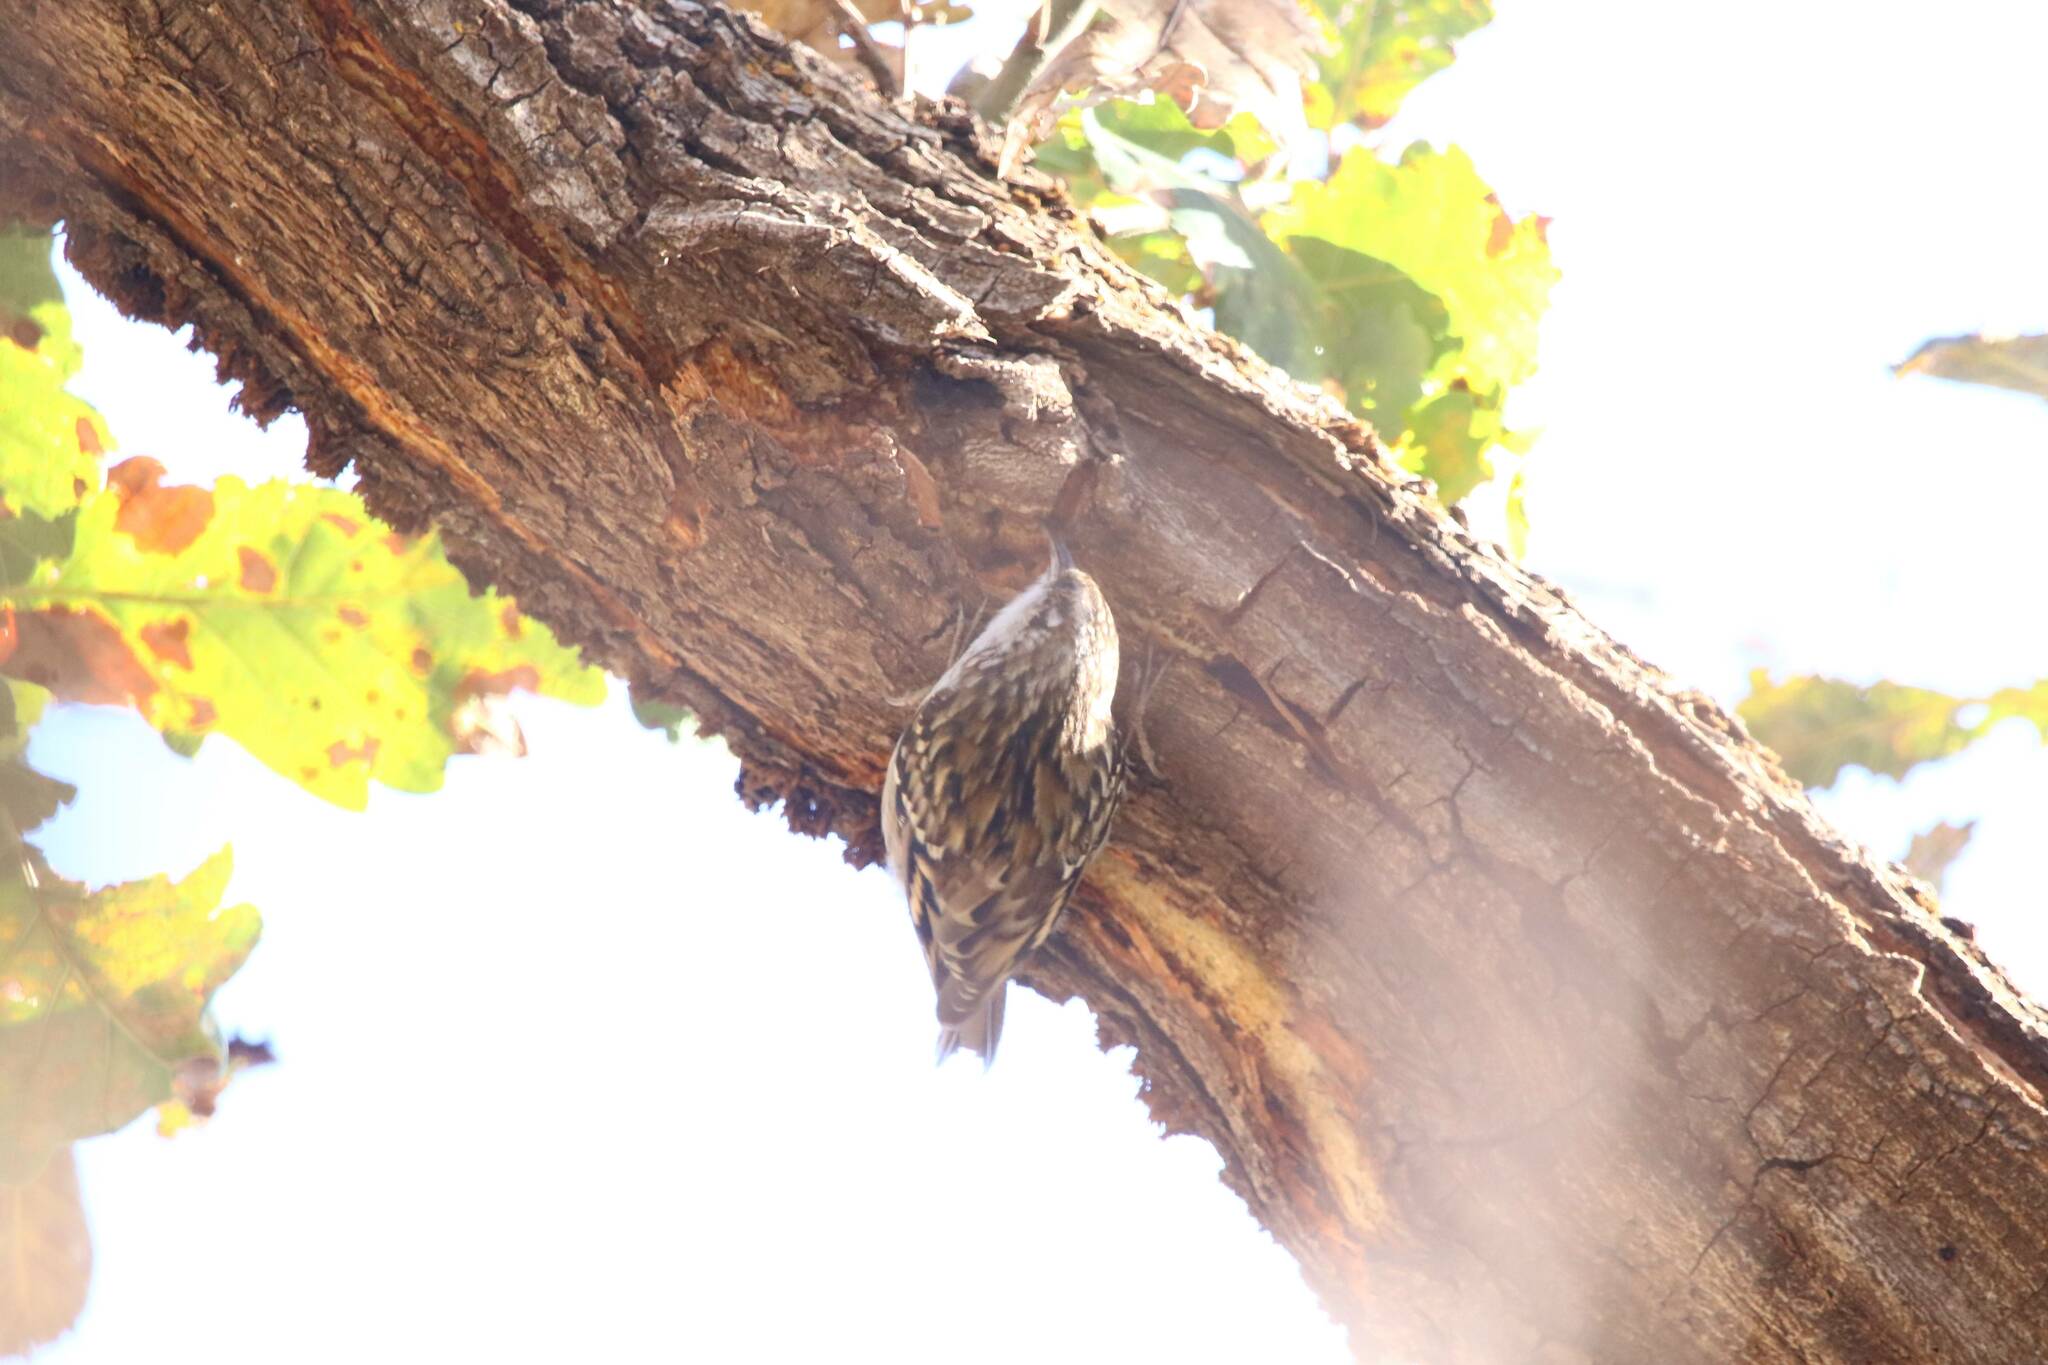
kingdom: Animalia
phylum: Chordata
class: Aves
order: Passeriformes
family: Certhiidae
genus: Certhia
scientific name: Certhia brachydactyla
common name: Short-toed treecreeper
